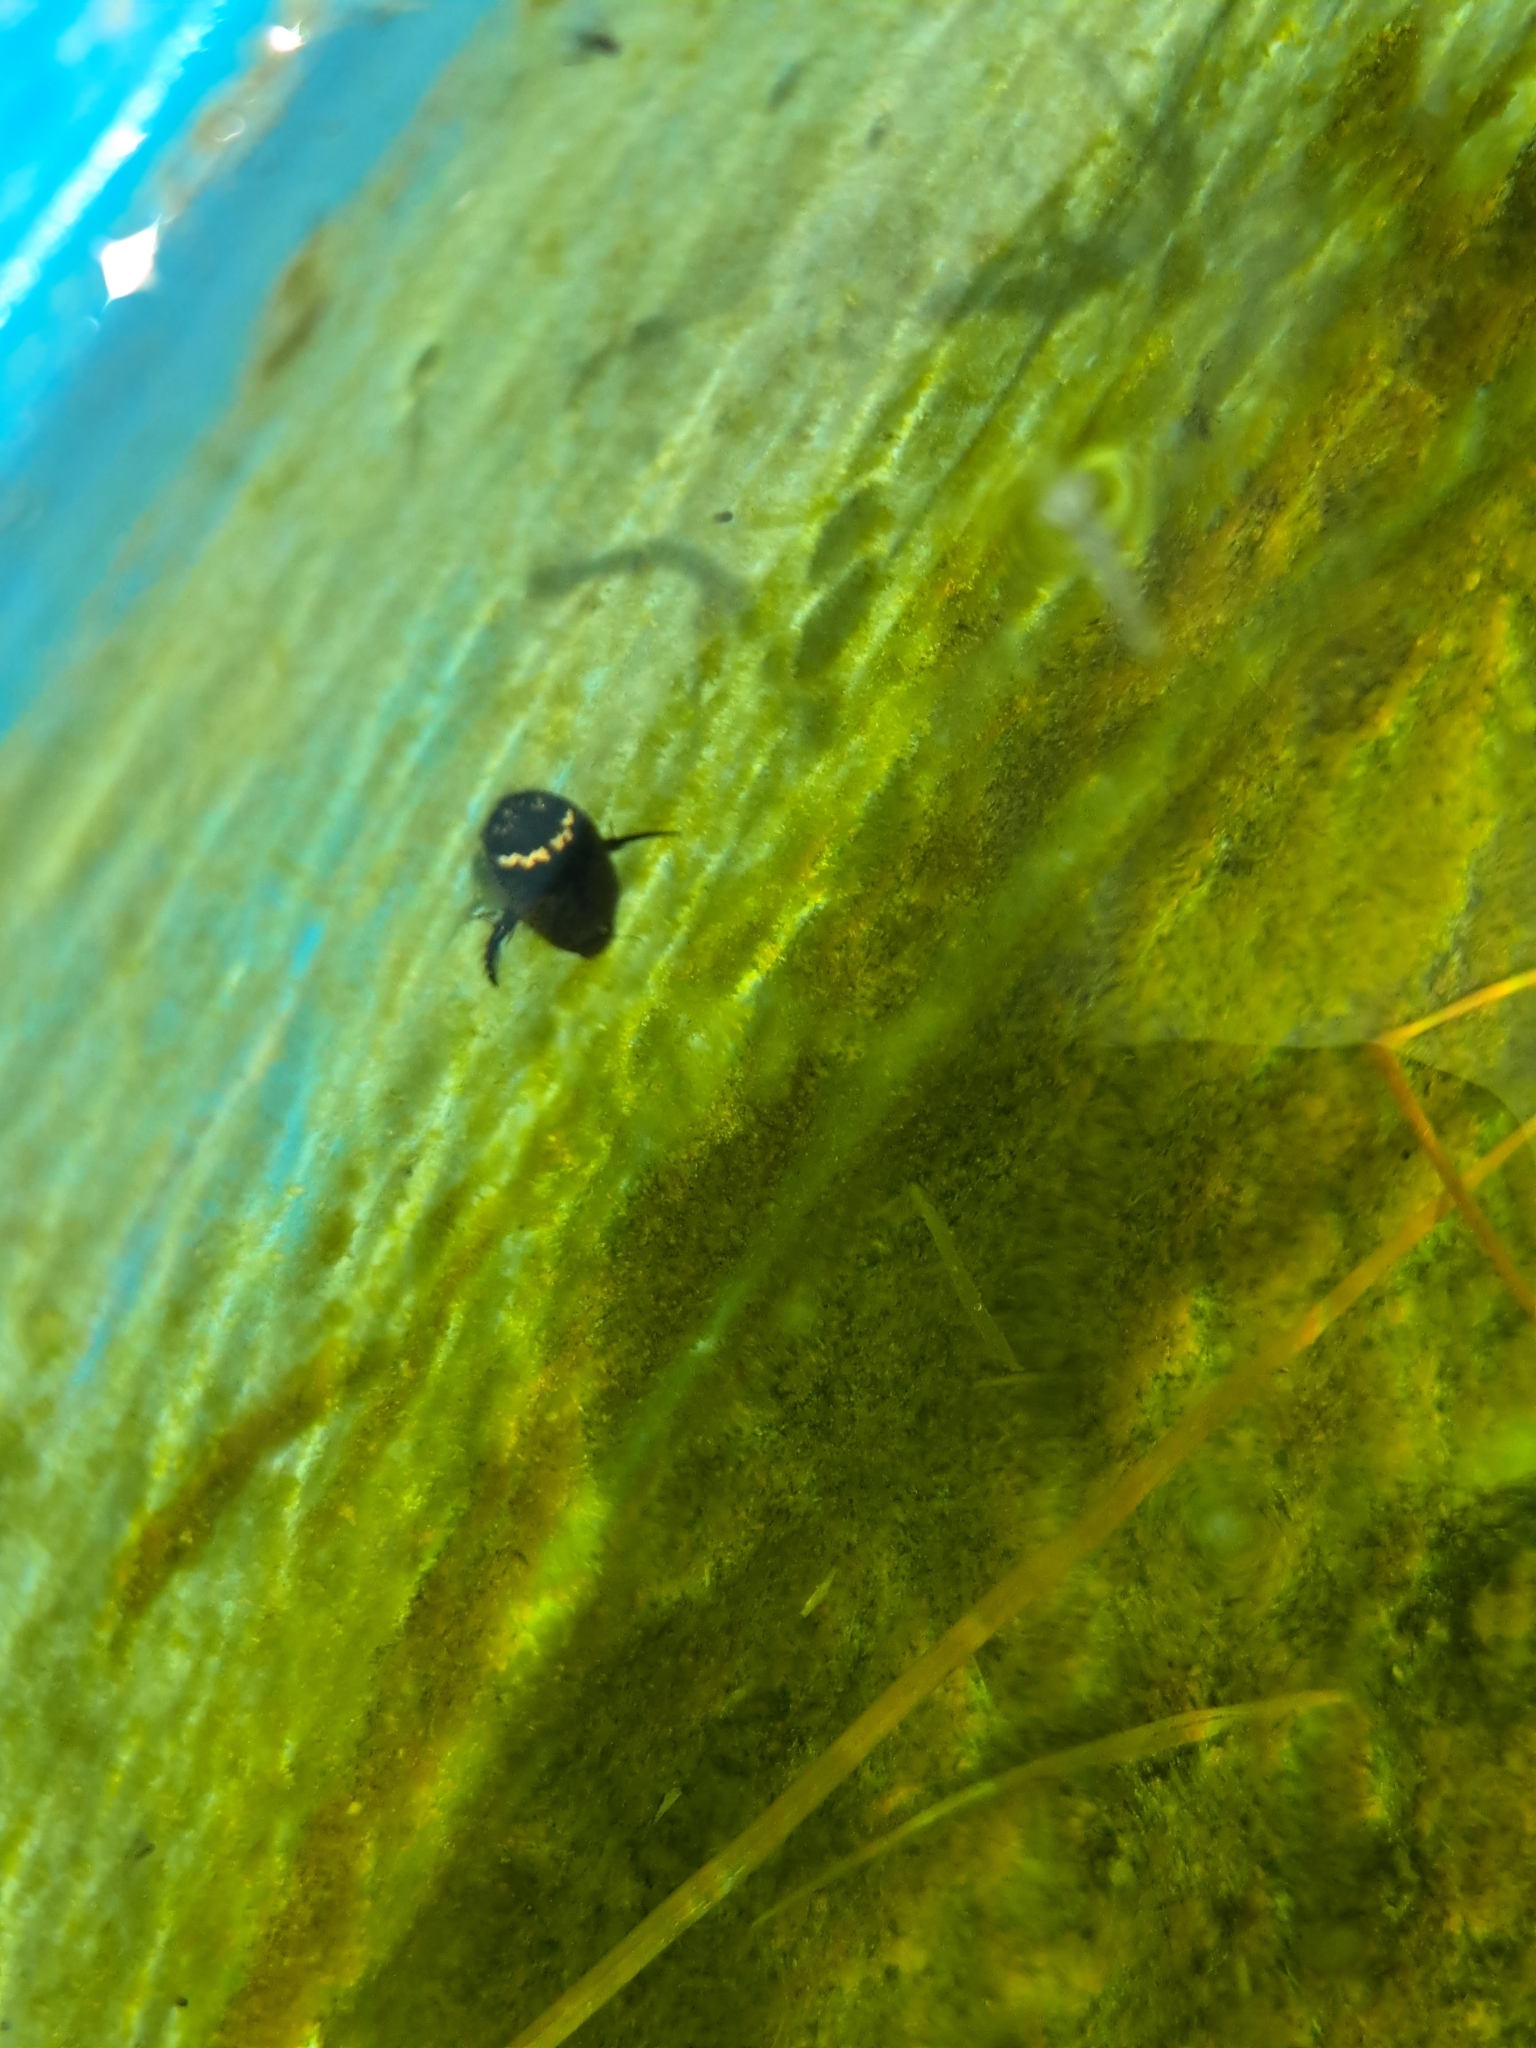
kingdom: Animalia
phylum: Arthropoda
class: Insecta
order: Coleoptera
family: Dytiscidae
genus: Acilius
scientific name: Acilius mediatus
